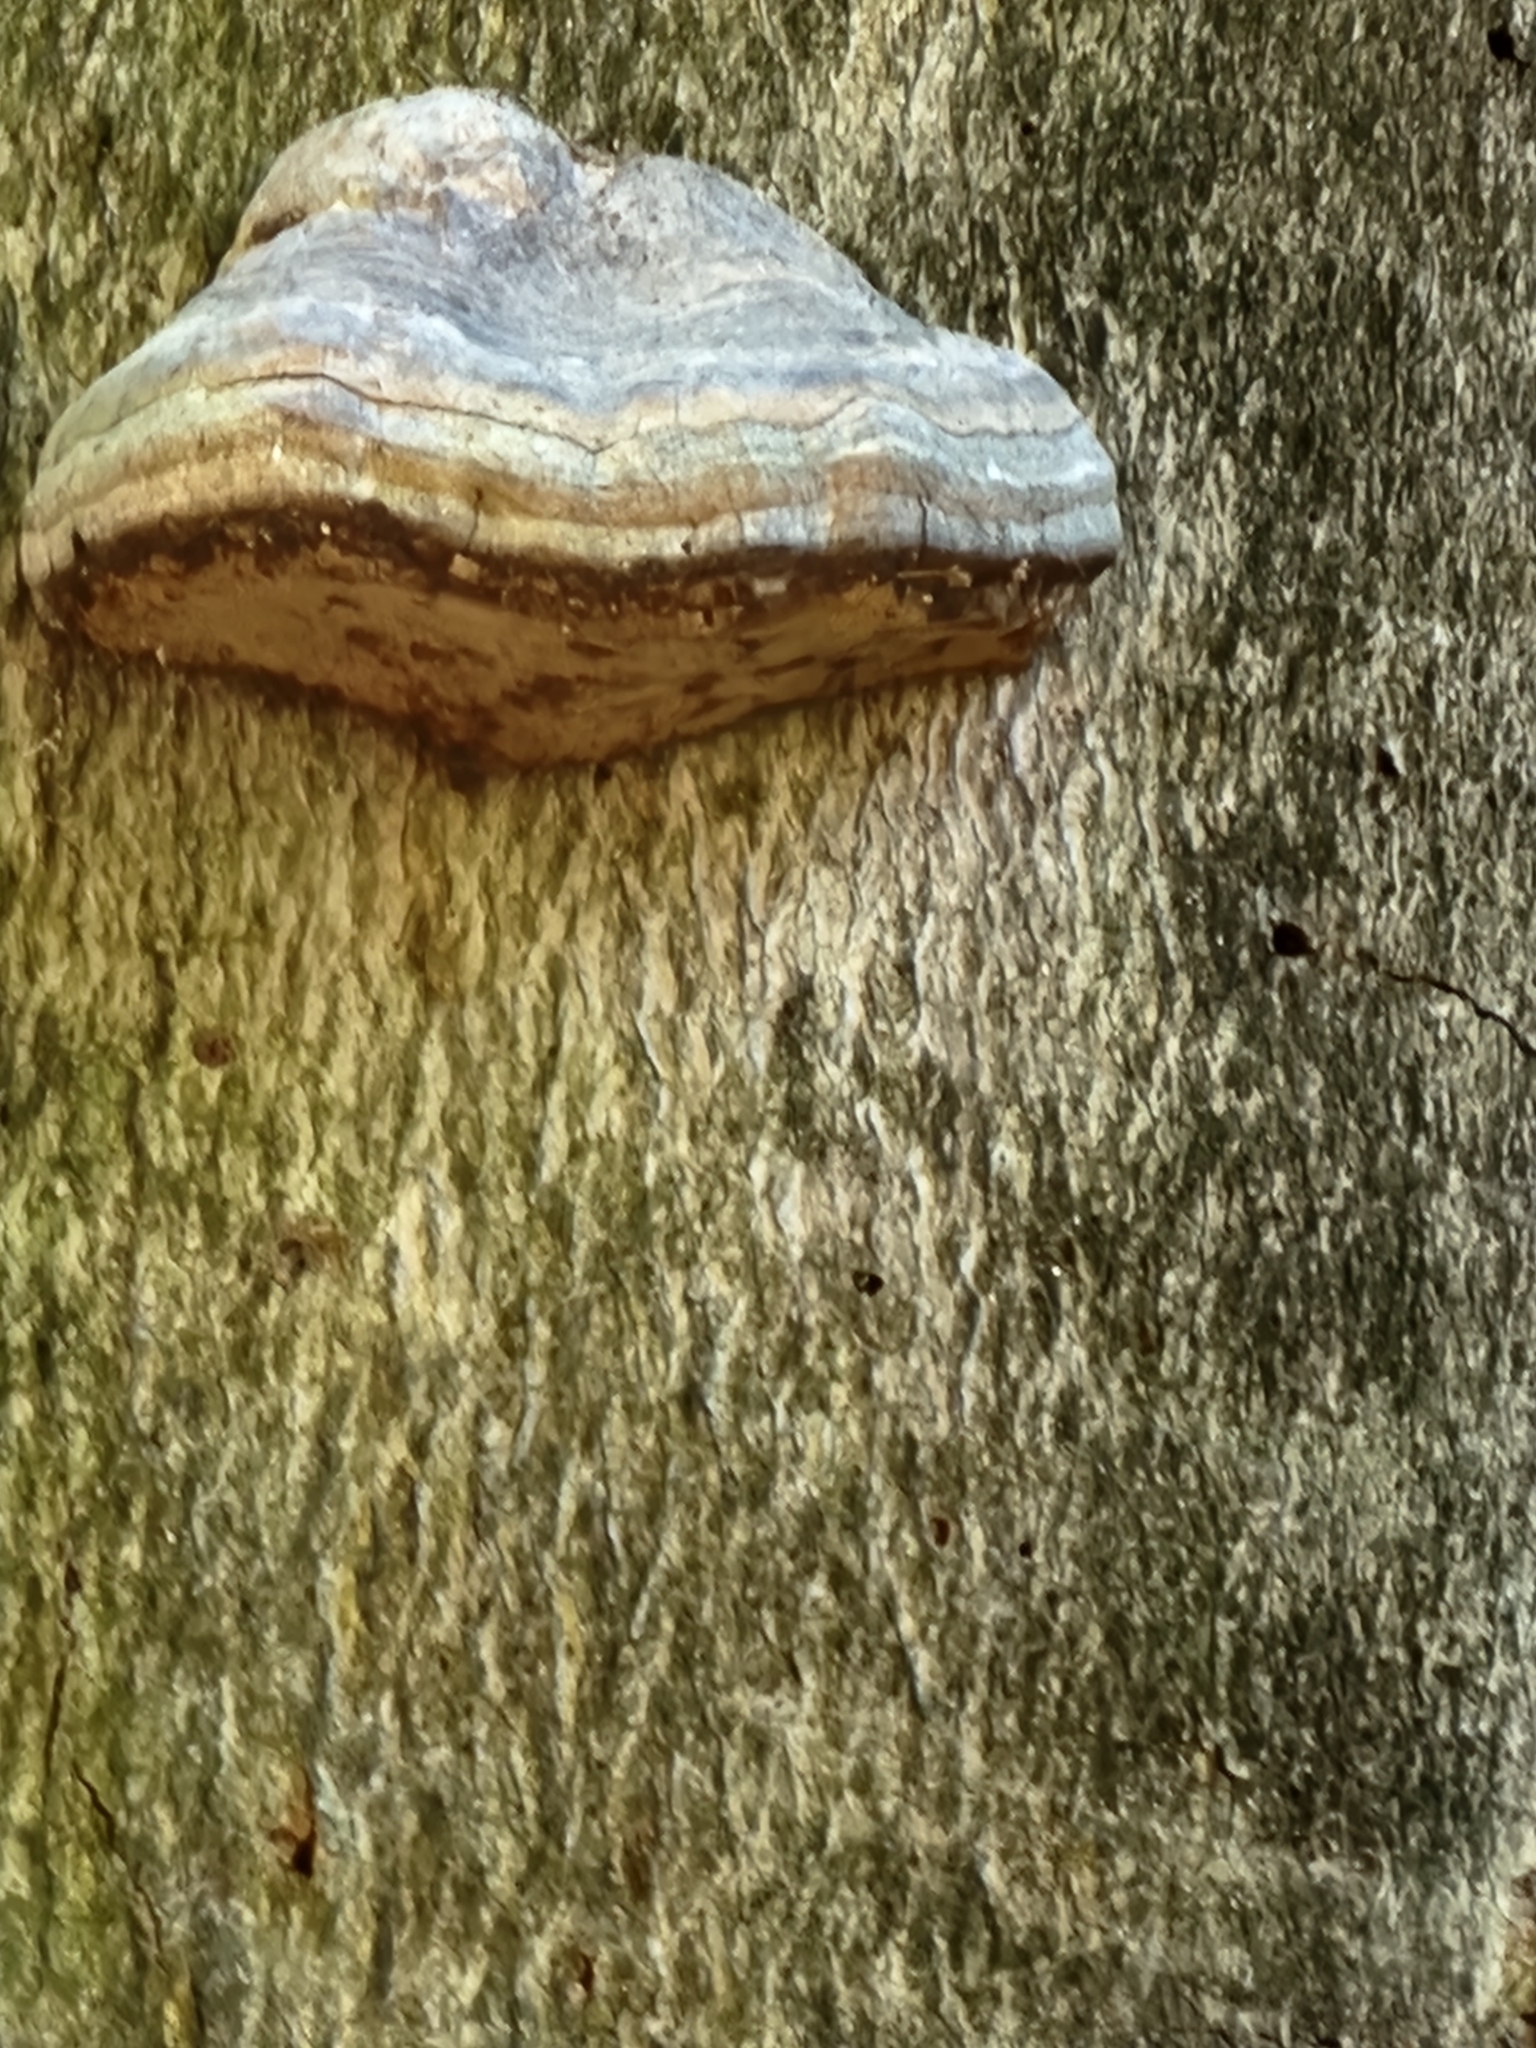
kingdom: Fungi
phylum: Basidiomycota
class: Agaricomycetes
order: Polyporales
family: Polyporaceae
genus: Fomes
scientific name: Fomes fomentarius
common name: Hoof fungus
